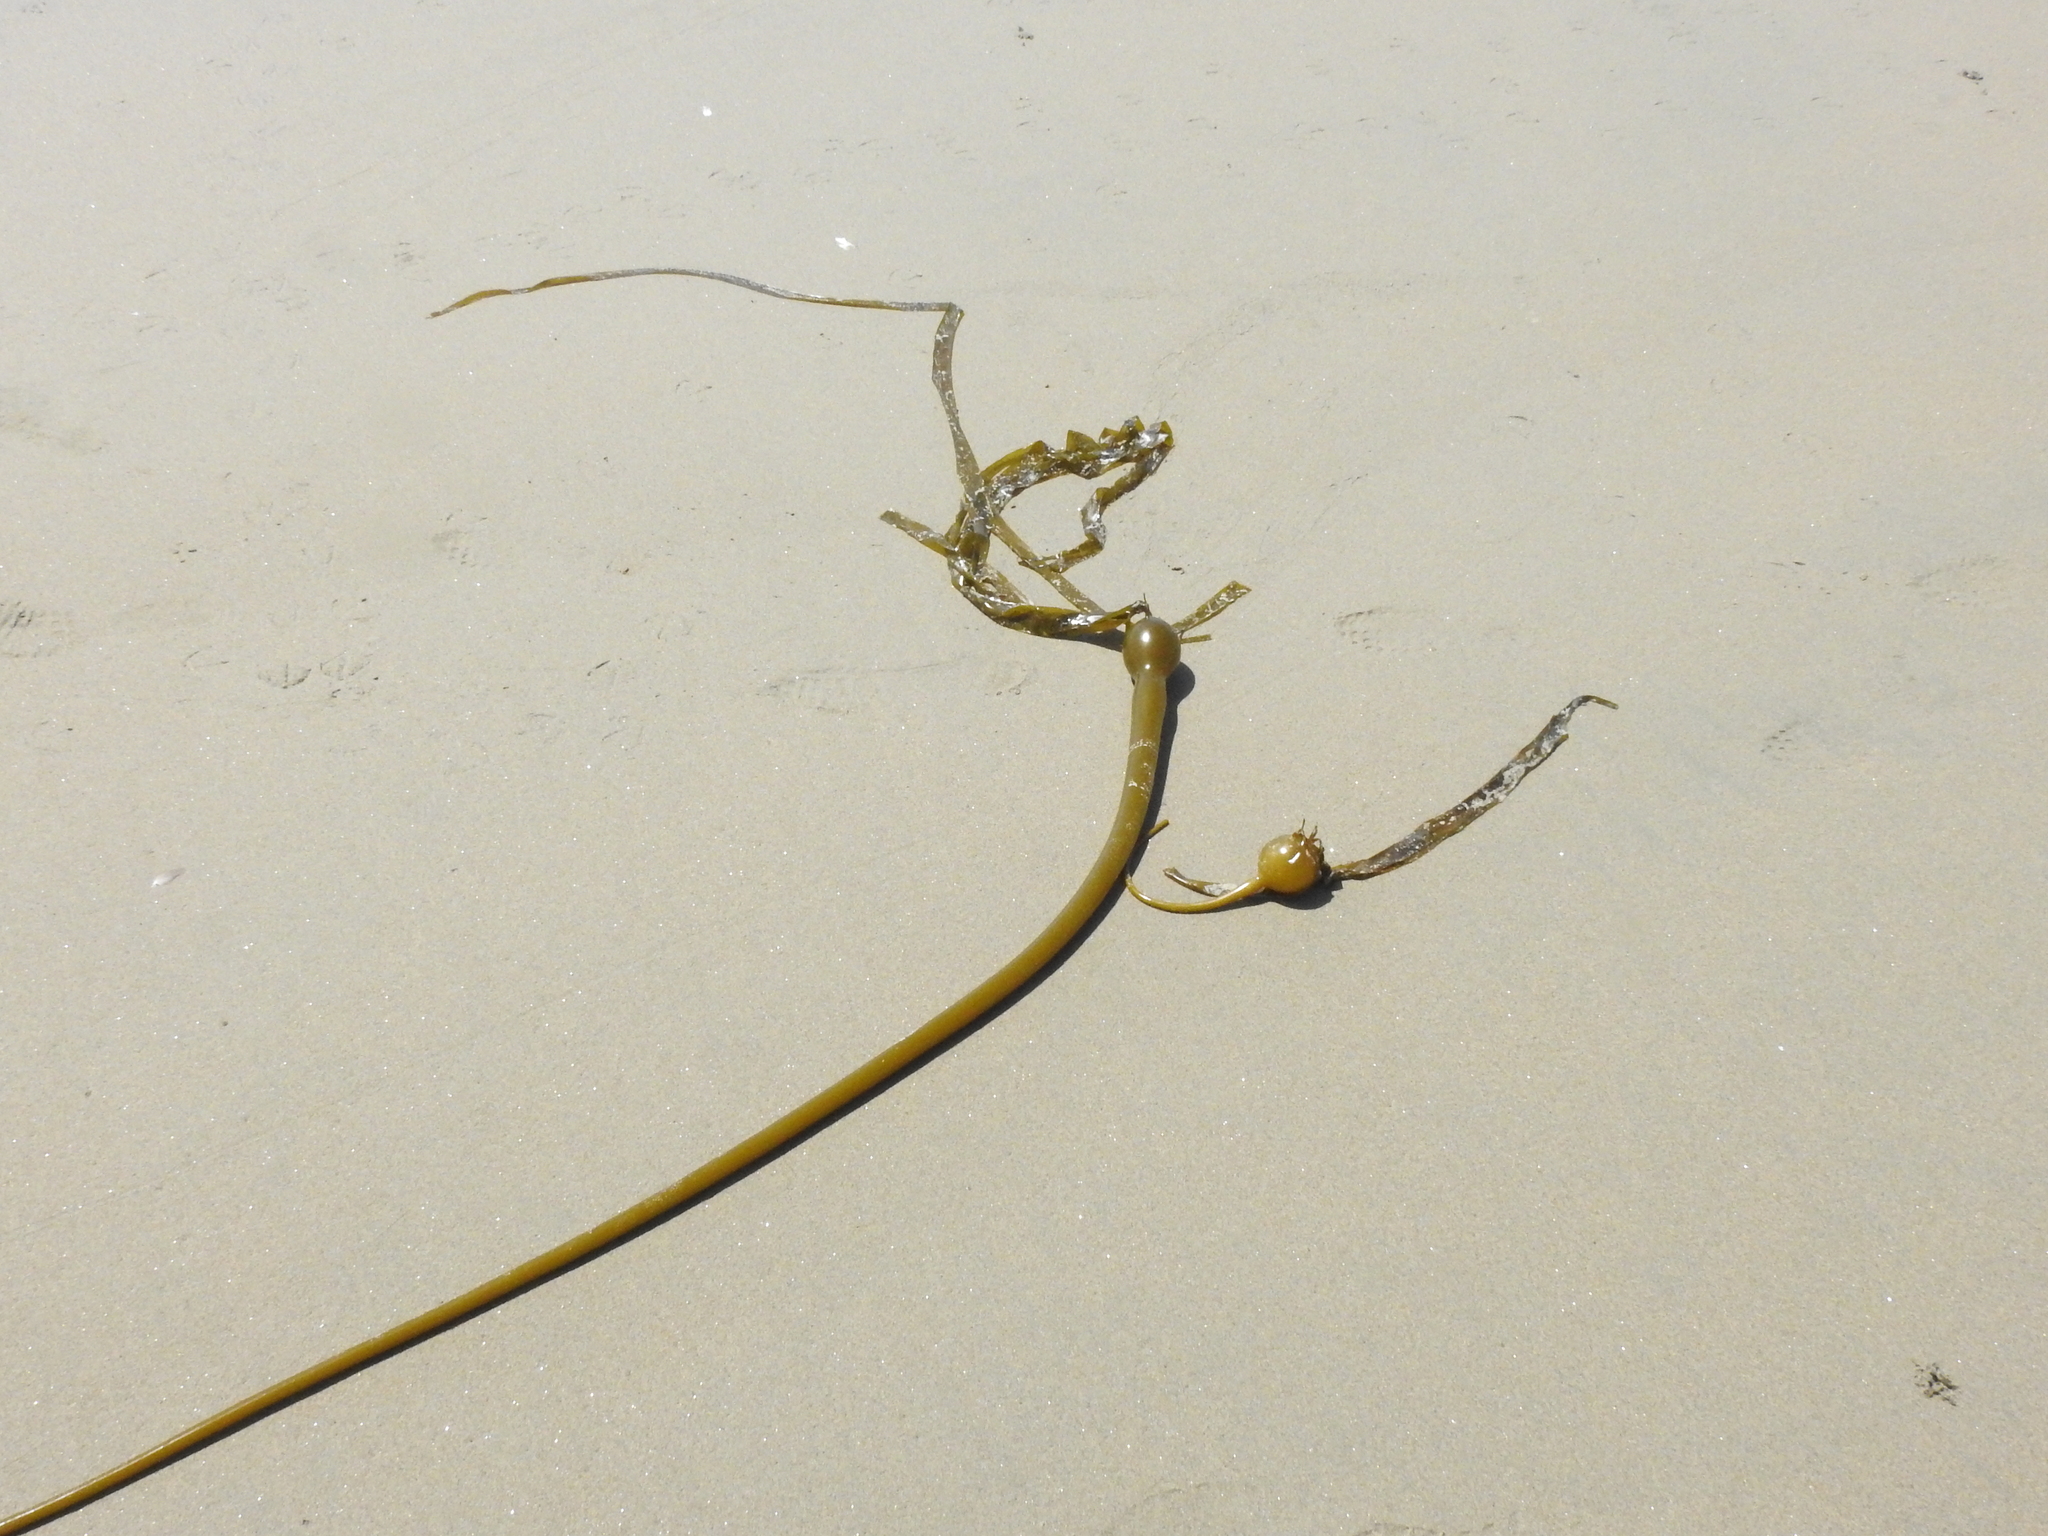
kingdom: Chromista
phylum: Ochrophyta
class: Phaeophyceae
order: Laminariales
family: Laminariaceae
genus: Nereocystis
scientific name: Nereocystis luetkeana
